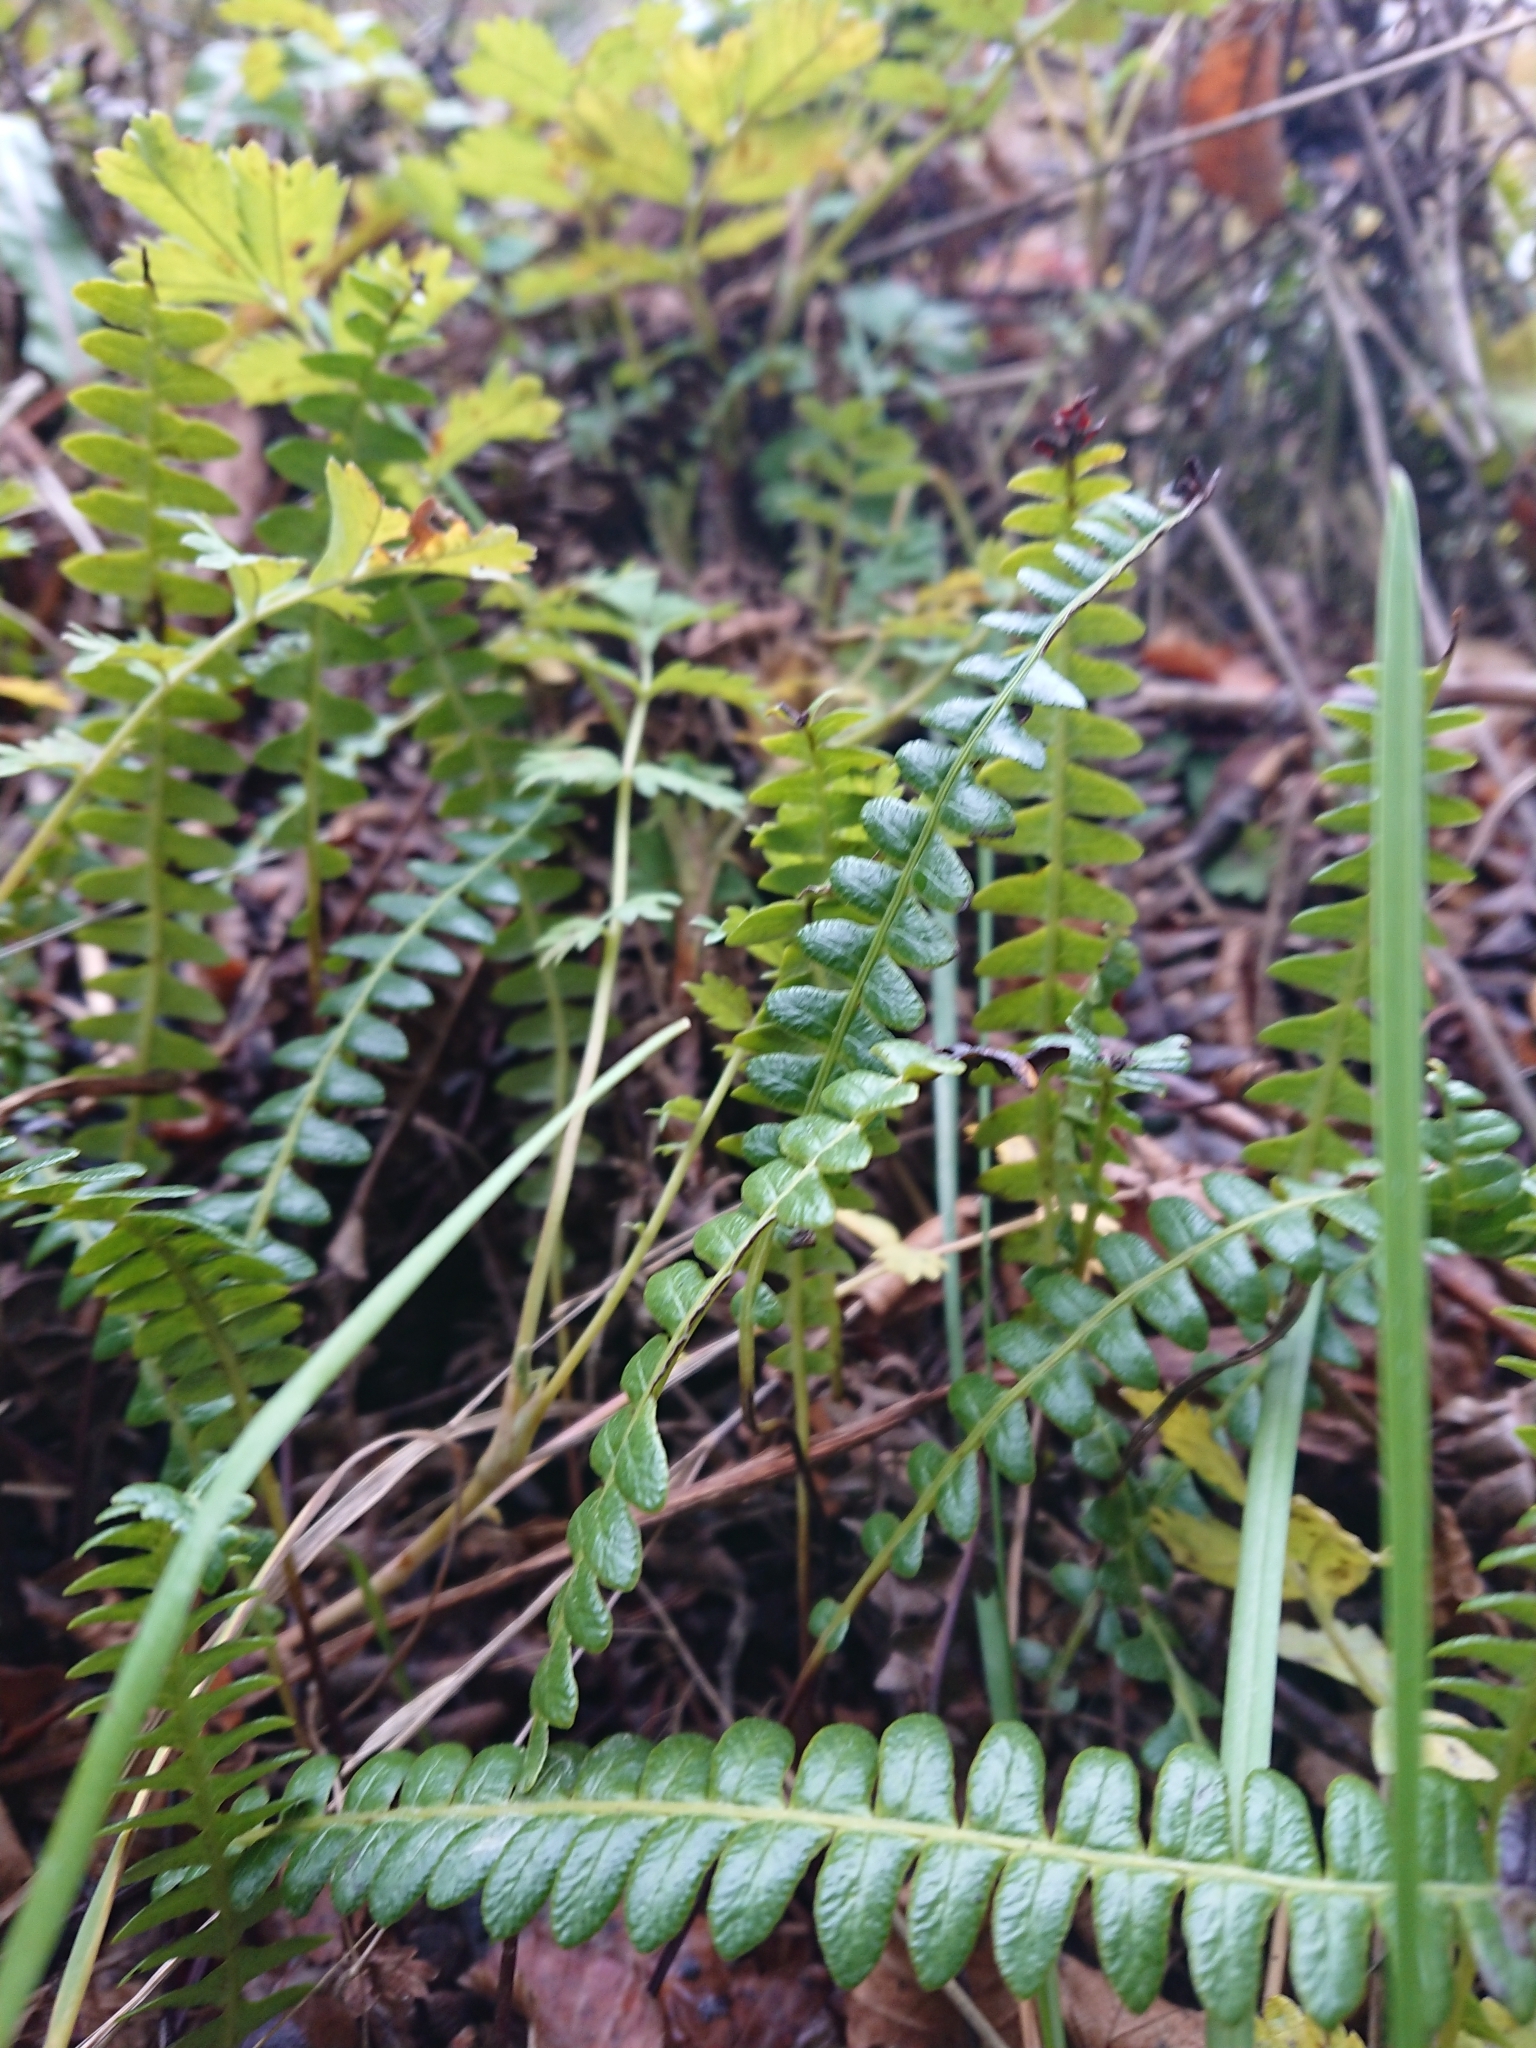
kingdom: Plantae
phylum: Tracheophyta
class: Polypodiopsida
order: Polypodiales
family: Blechnaceae
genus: Austroblechnum
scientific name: Austroblechnum penna-marina
